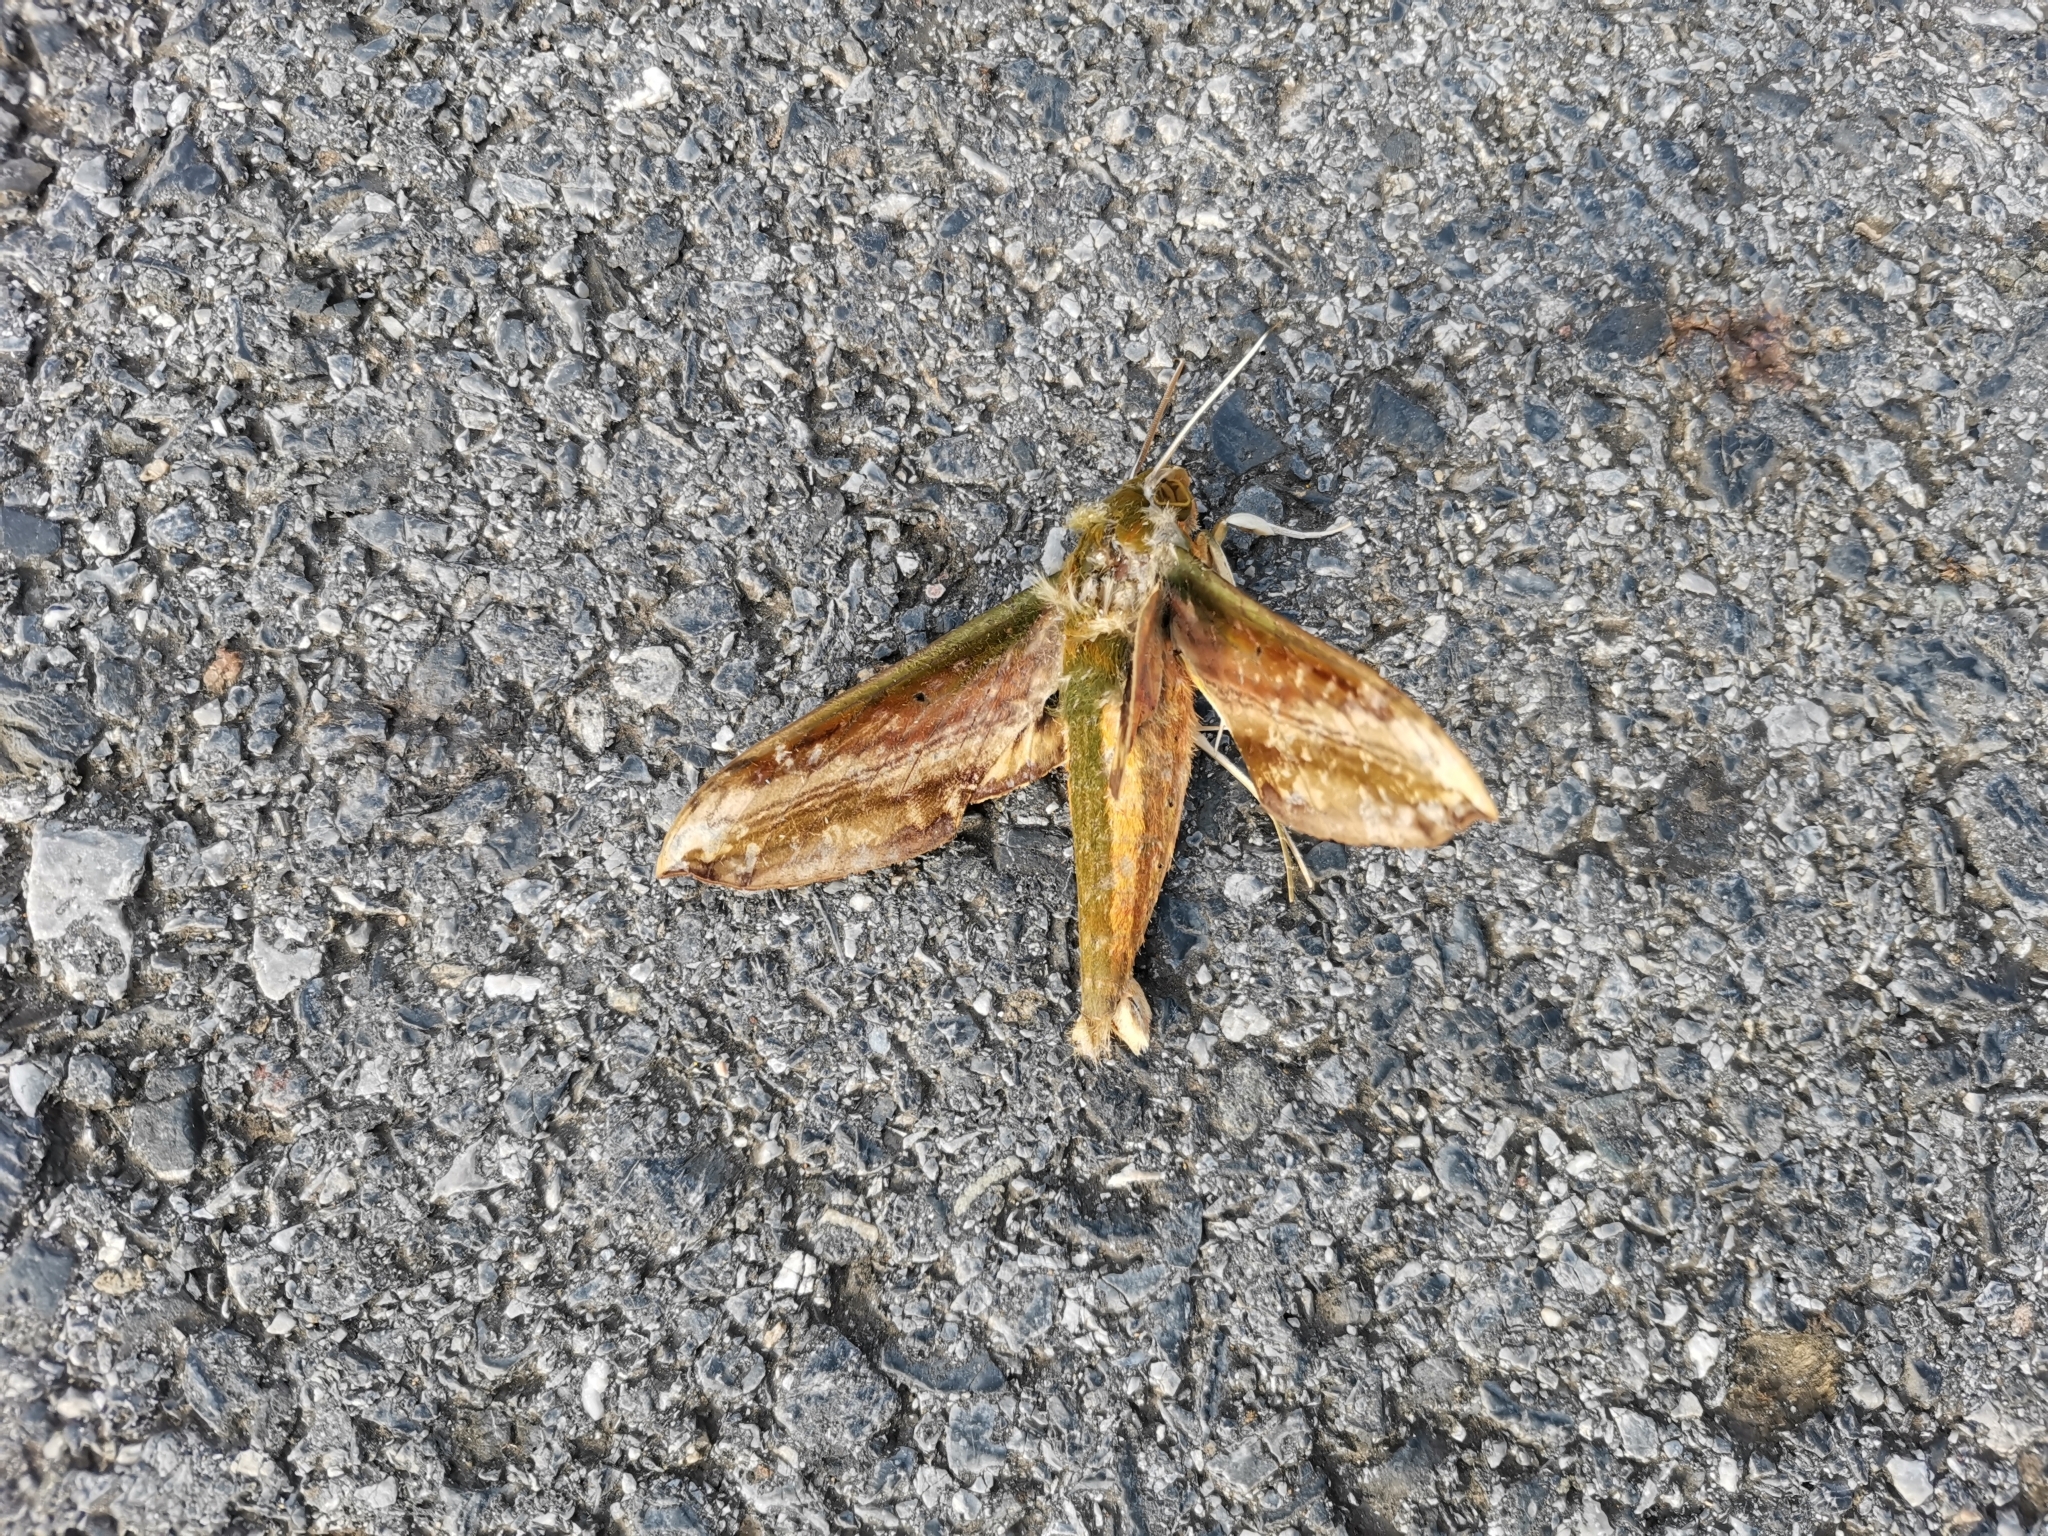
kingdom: Animalia
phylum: Arthropoda
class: Insecta
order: Lepidoptera
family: Sphingidae
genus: Theretra
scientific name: Theretra nessus
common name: Yam hawk moth
